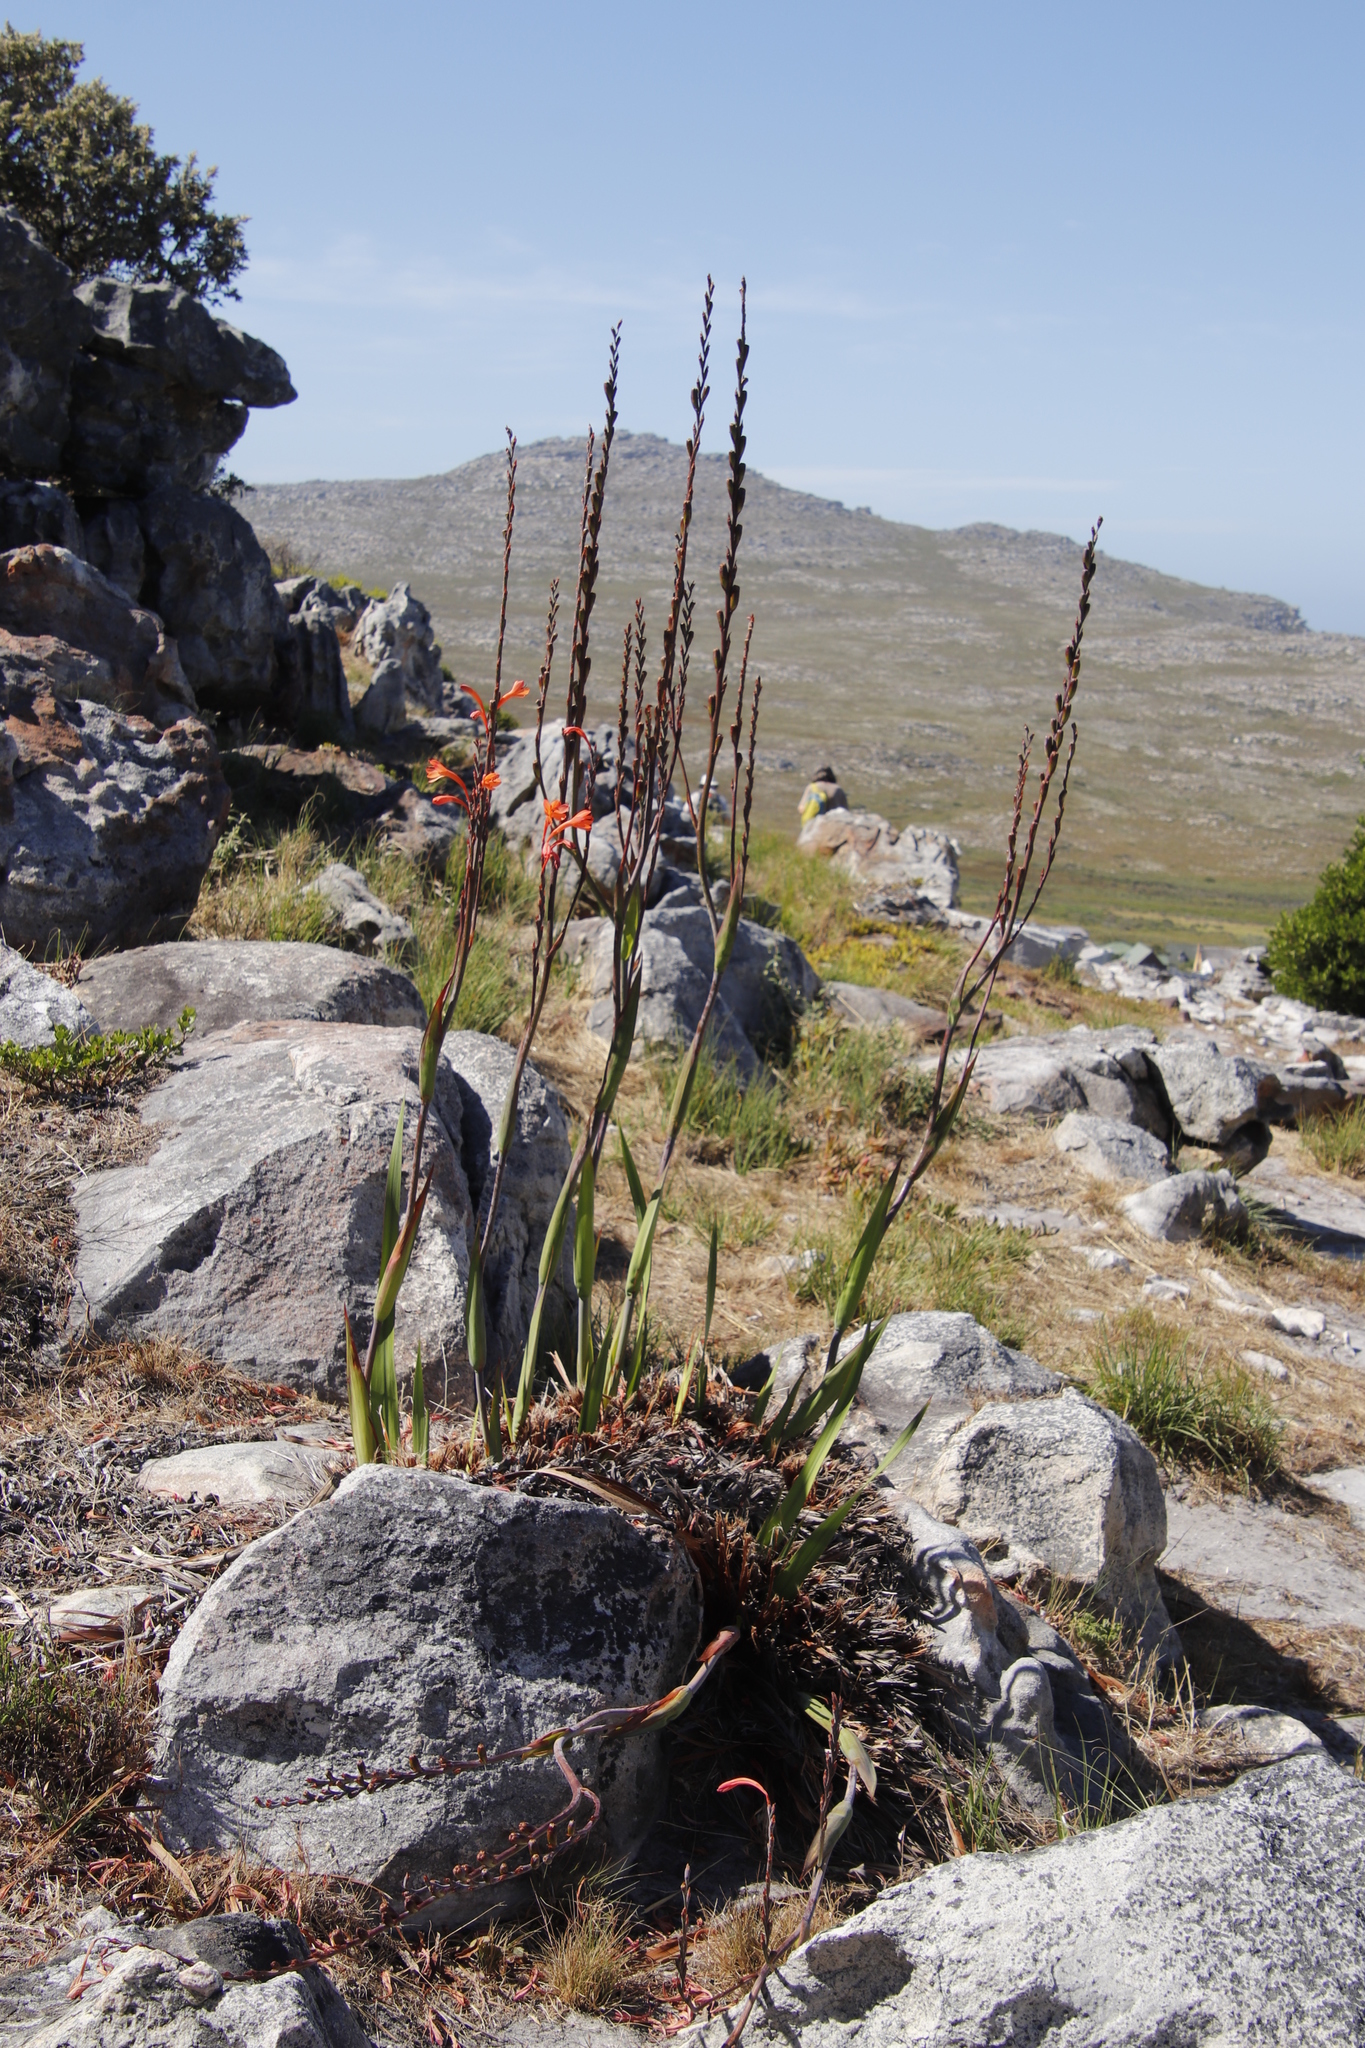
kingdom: Plantae
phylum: Tracheophyta
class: Liliopsida
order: Asparagales
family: Iridaceae
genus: Watsonia
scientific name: Watsonia tabularis
